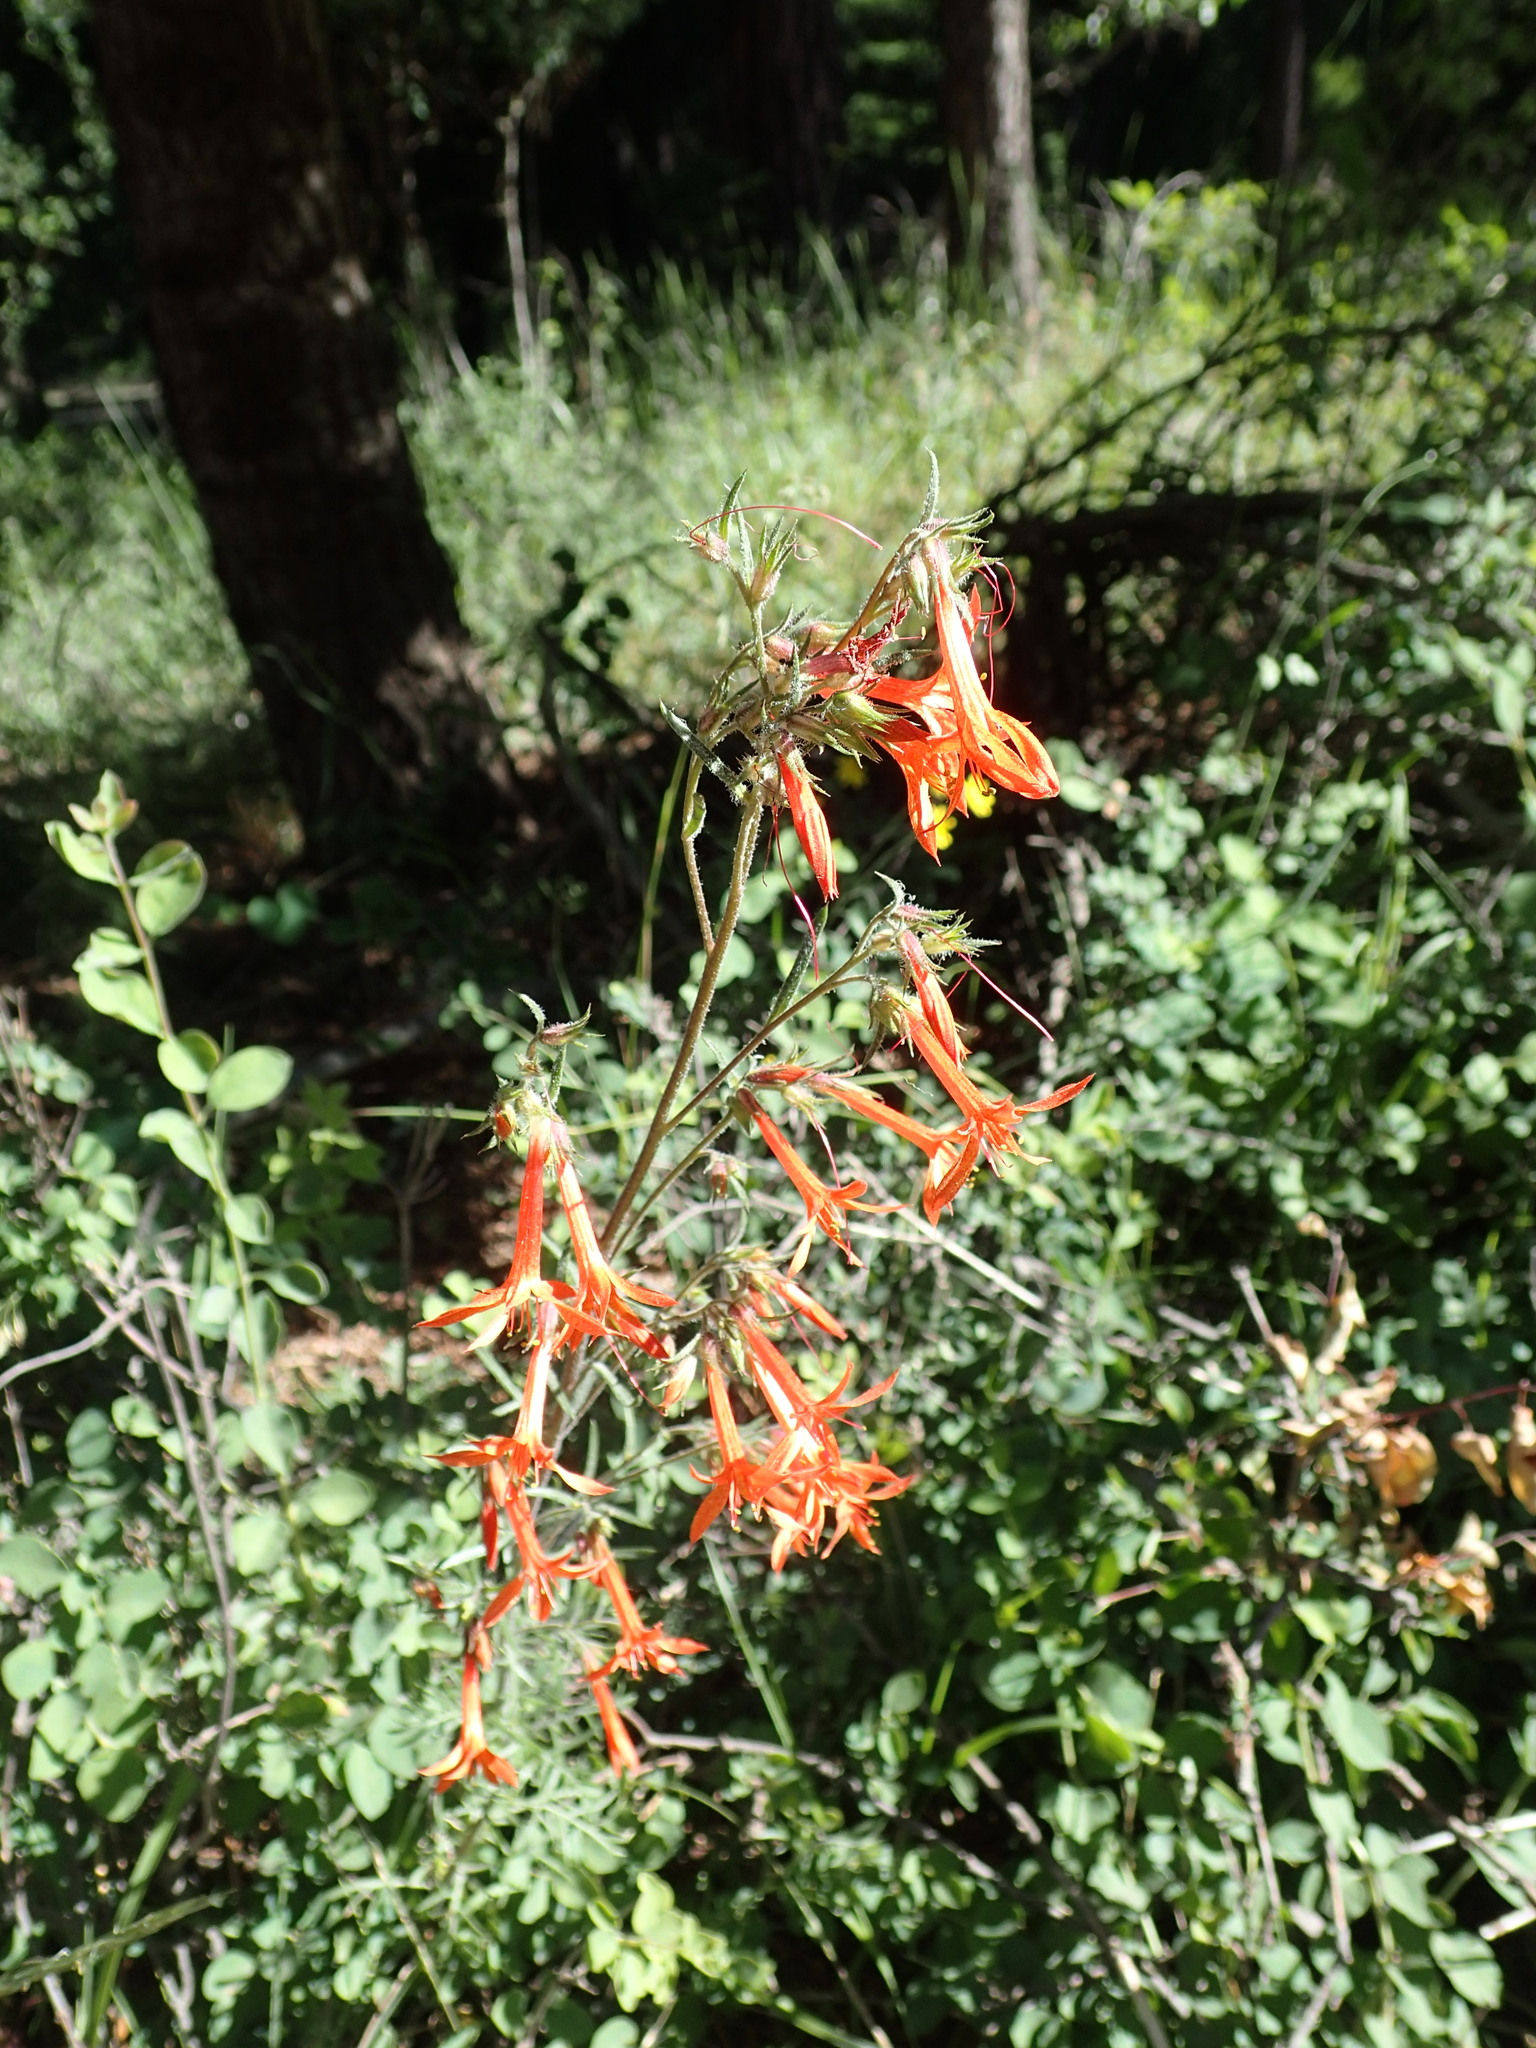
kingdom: Plantae
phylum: Tracheophyta
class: Magnoliopsida
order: Ericales
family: Polemoniaceae
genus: Ipomopsis
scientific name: Ipomopsis aggregata
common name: Scarlet gilia
